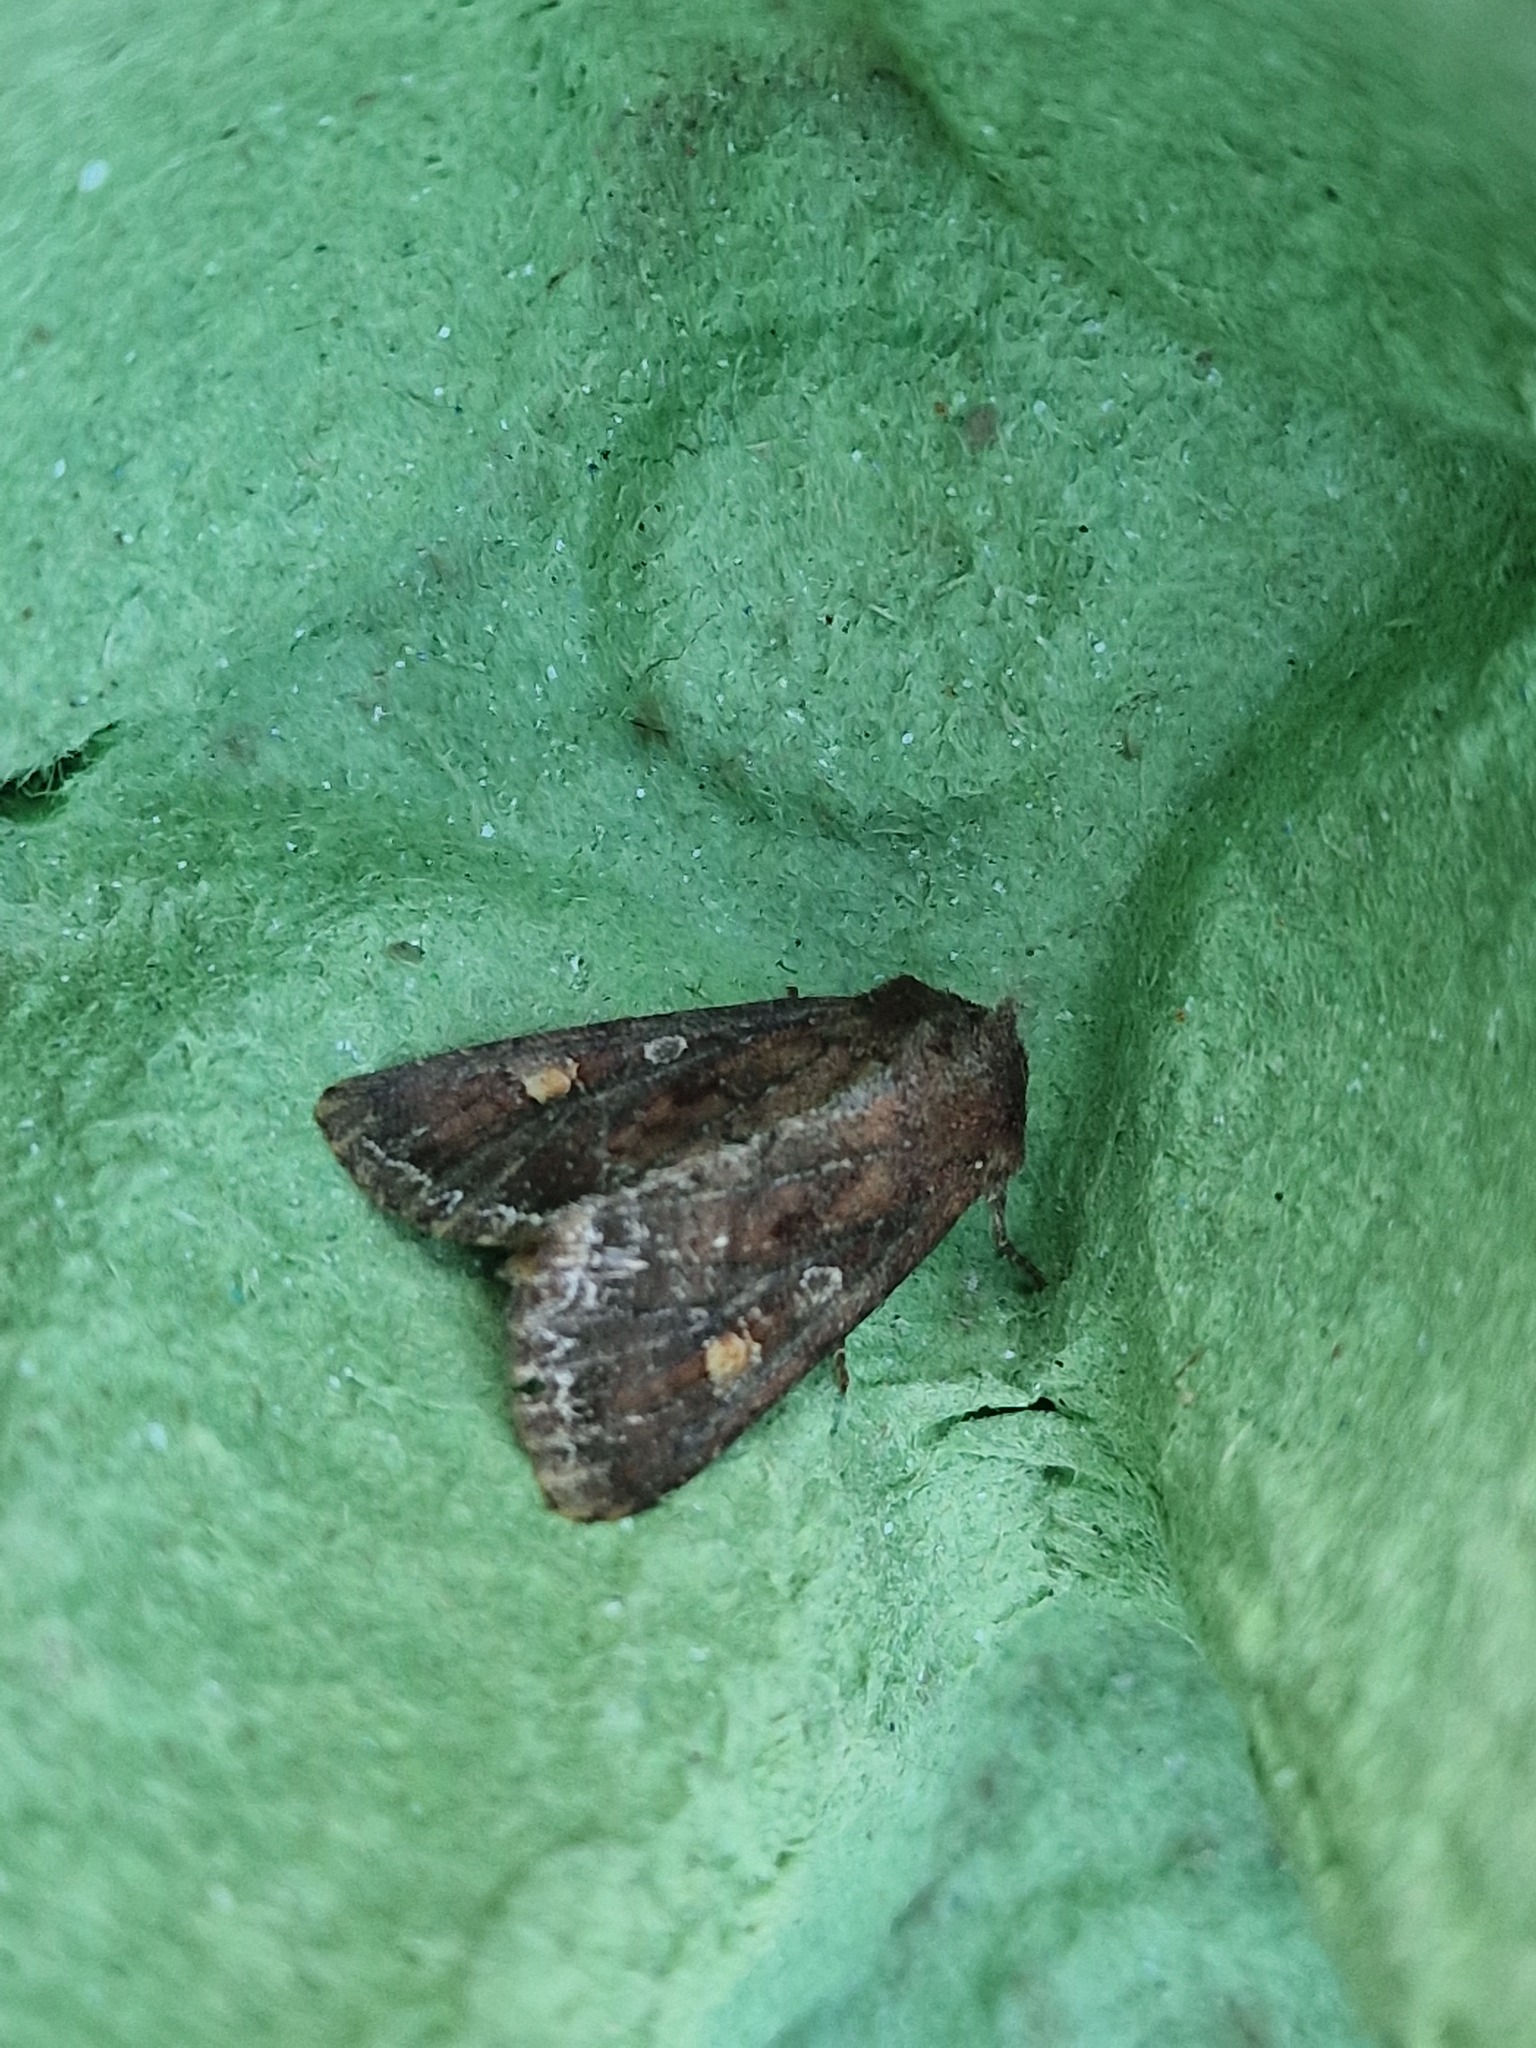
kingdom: Animalia
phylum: Arthropoda
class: Insecta
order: Lepidoptera
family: Noctuidae
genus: Lacanobia
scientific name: Lacanobia oleracea
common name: Bright-line brown-eye
